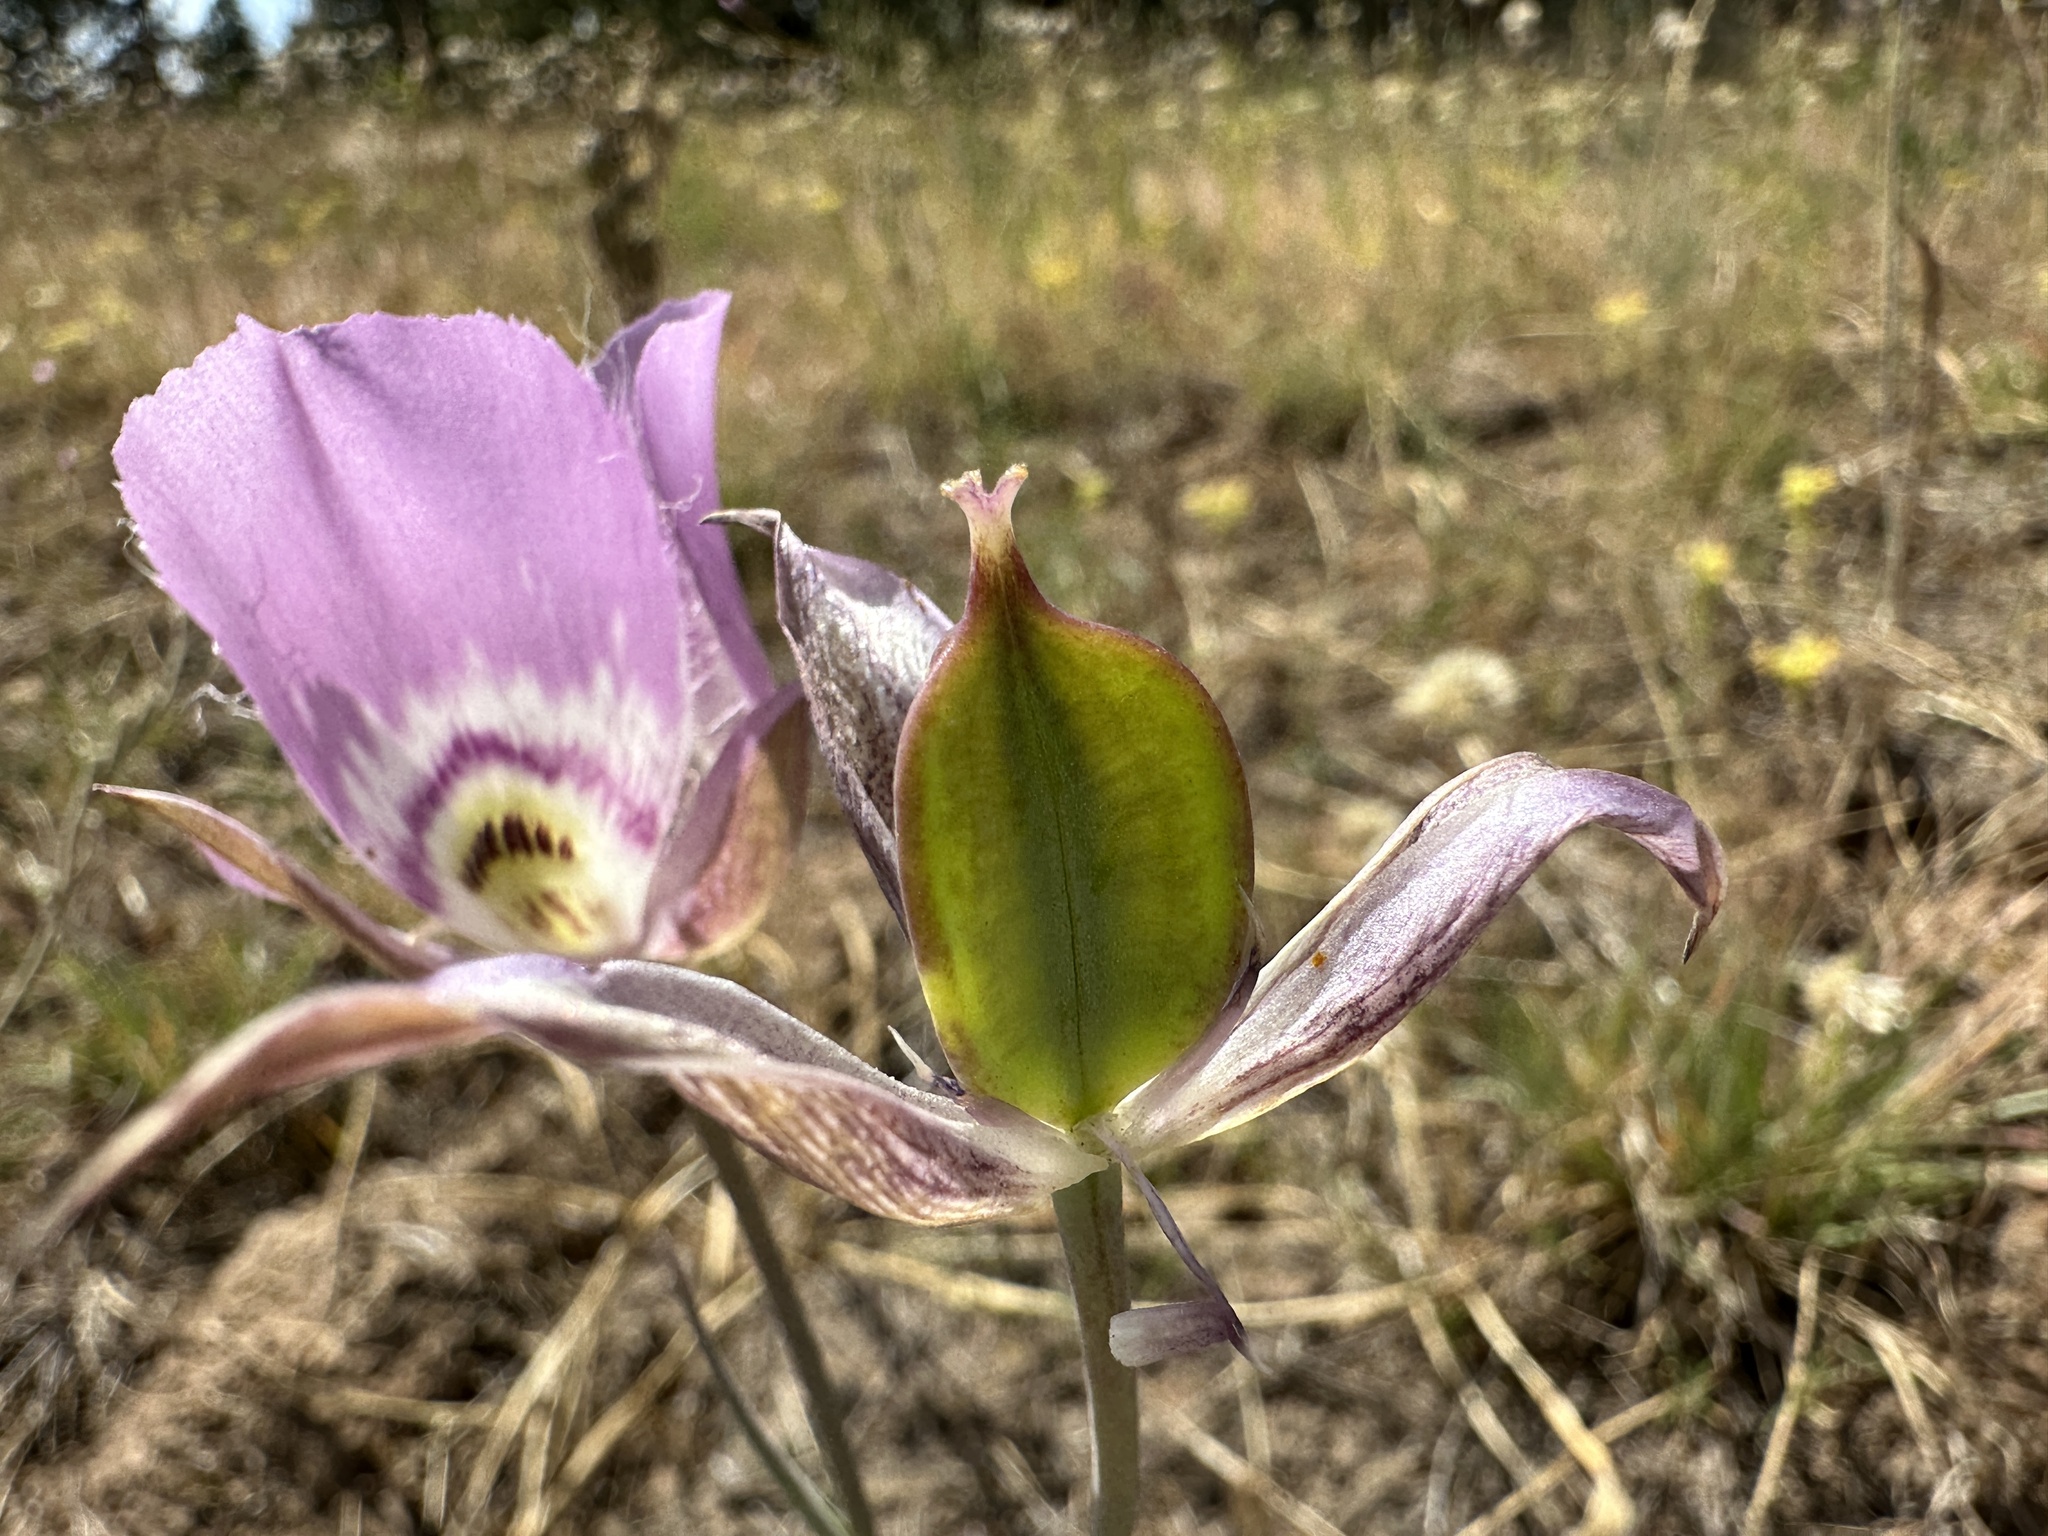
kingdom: Plantae
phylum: Tracheophyta
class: Liliopsida
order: Liliales
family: Liliaceae
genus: Calochortus
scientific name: Calochortus nitidus
